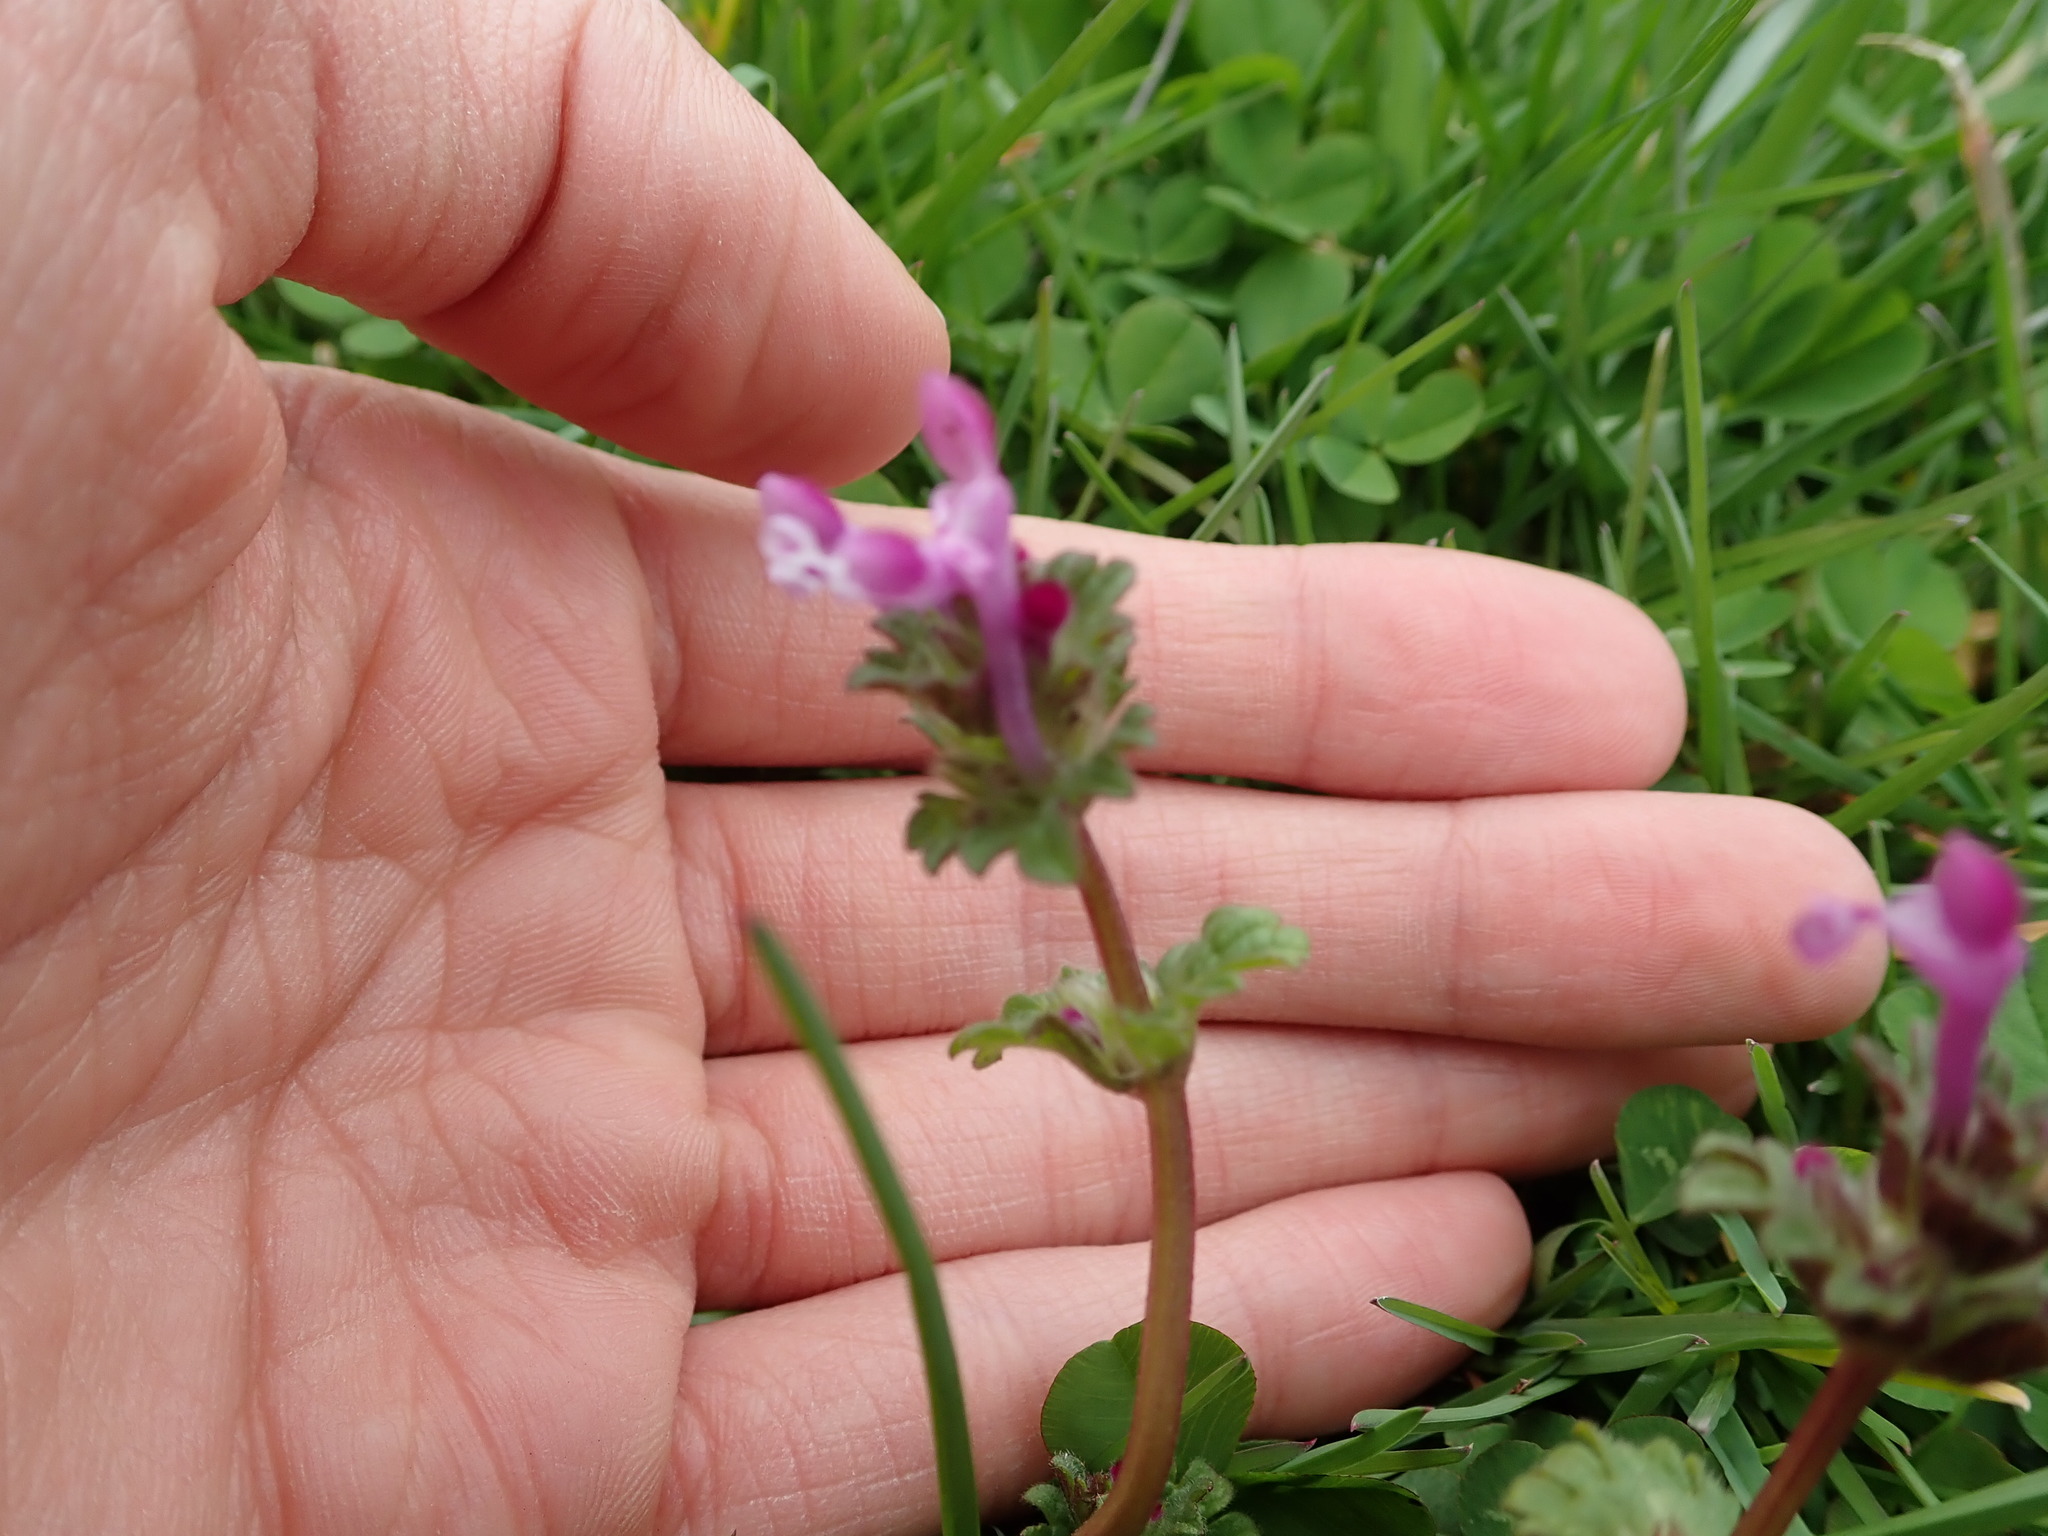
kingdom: Plantae
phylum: Tracheophyta
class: Magnoliopsida
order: Lamiales
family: Lamiaceae
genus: Lamium
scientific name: Lamium amplexicaule
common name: Henbit dead-nettle
